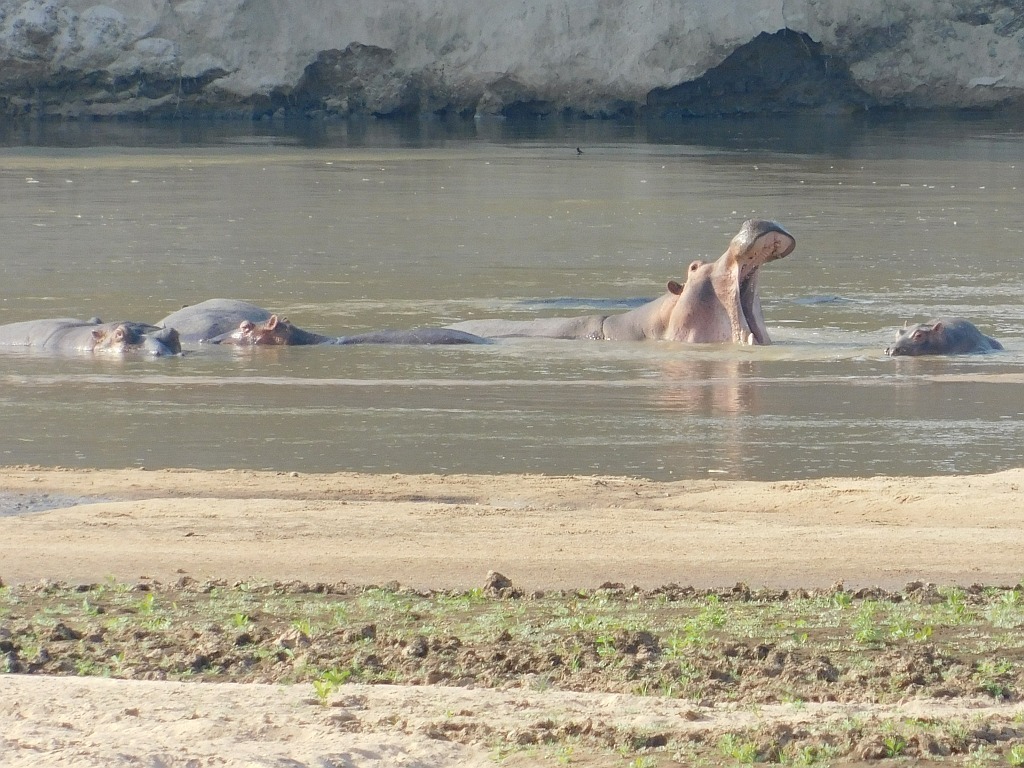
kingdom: Animalia
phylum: Chordata
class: Mammalia
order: Artiodactyla
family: Hippopotamidae
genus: Hippopotamus
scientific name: Hippopotamus amphibius
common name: Common hippopotamus
